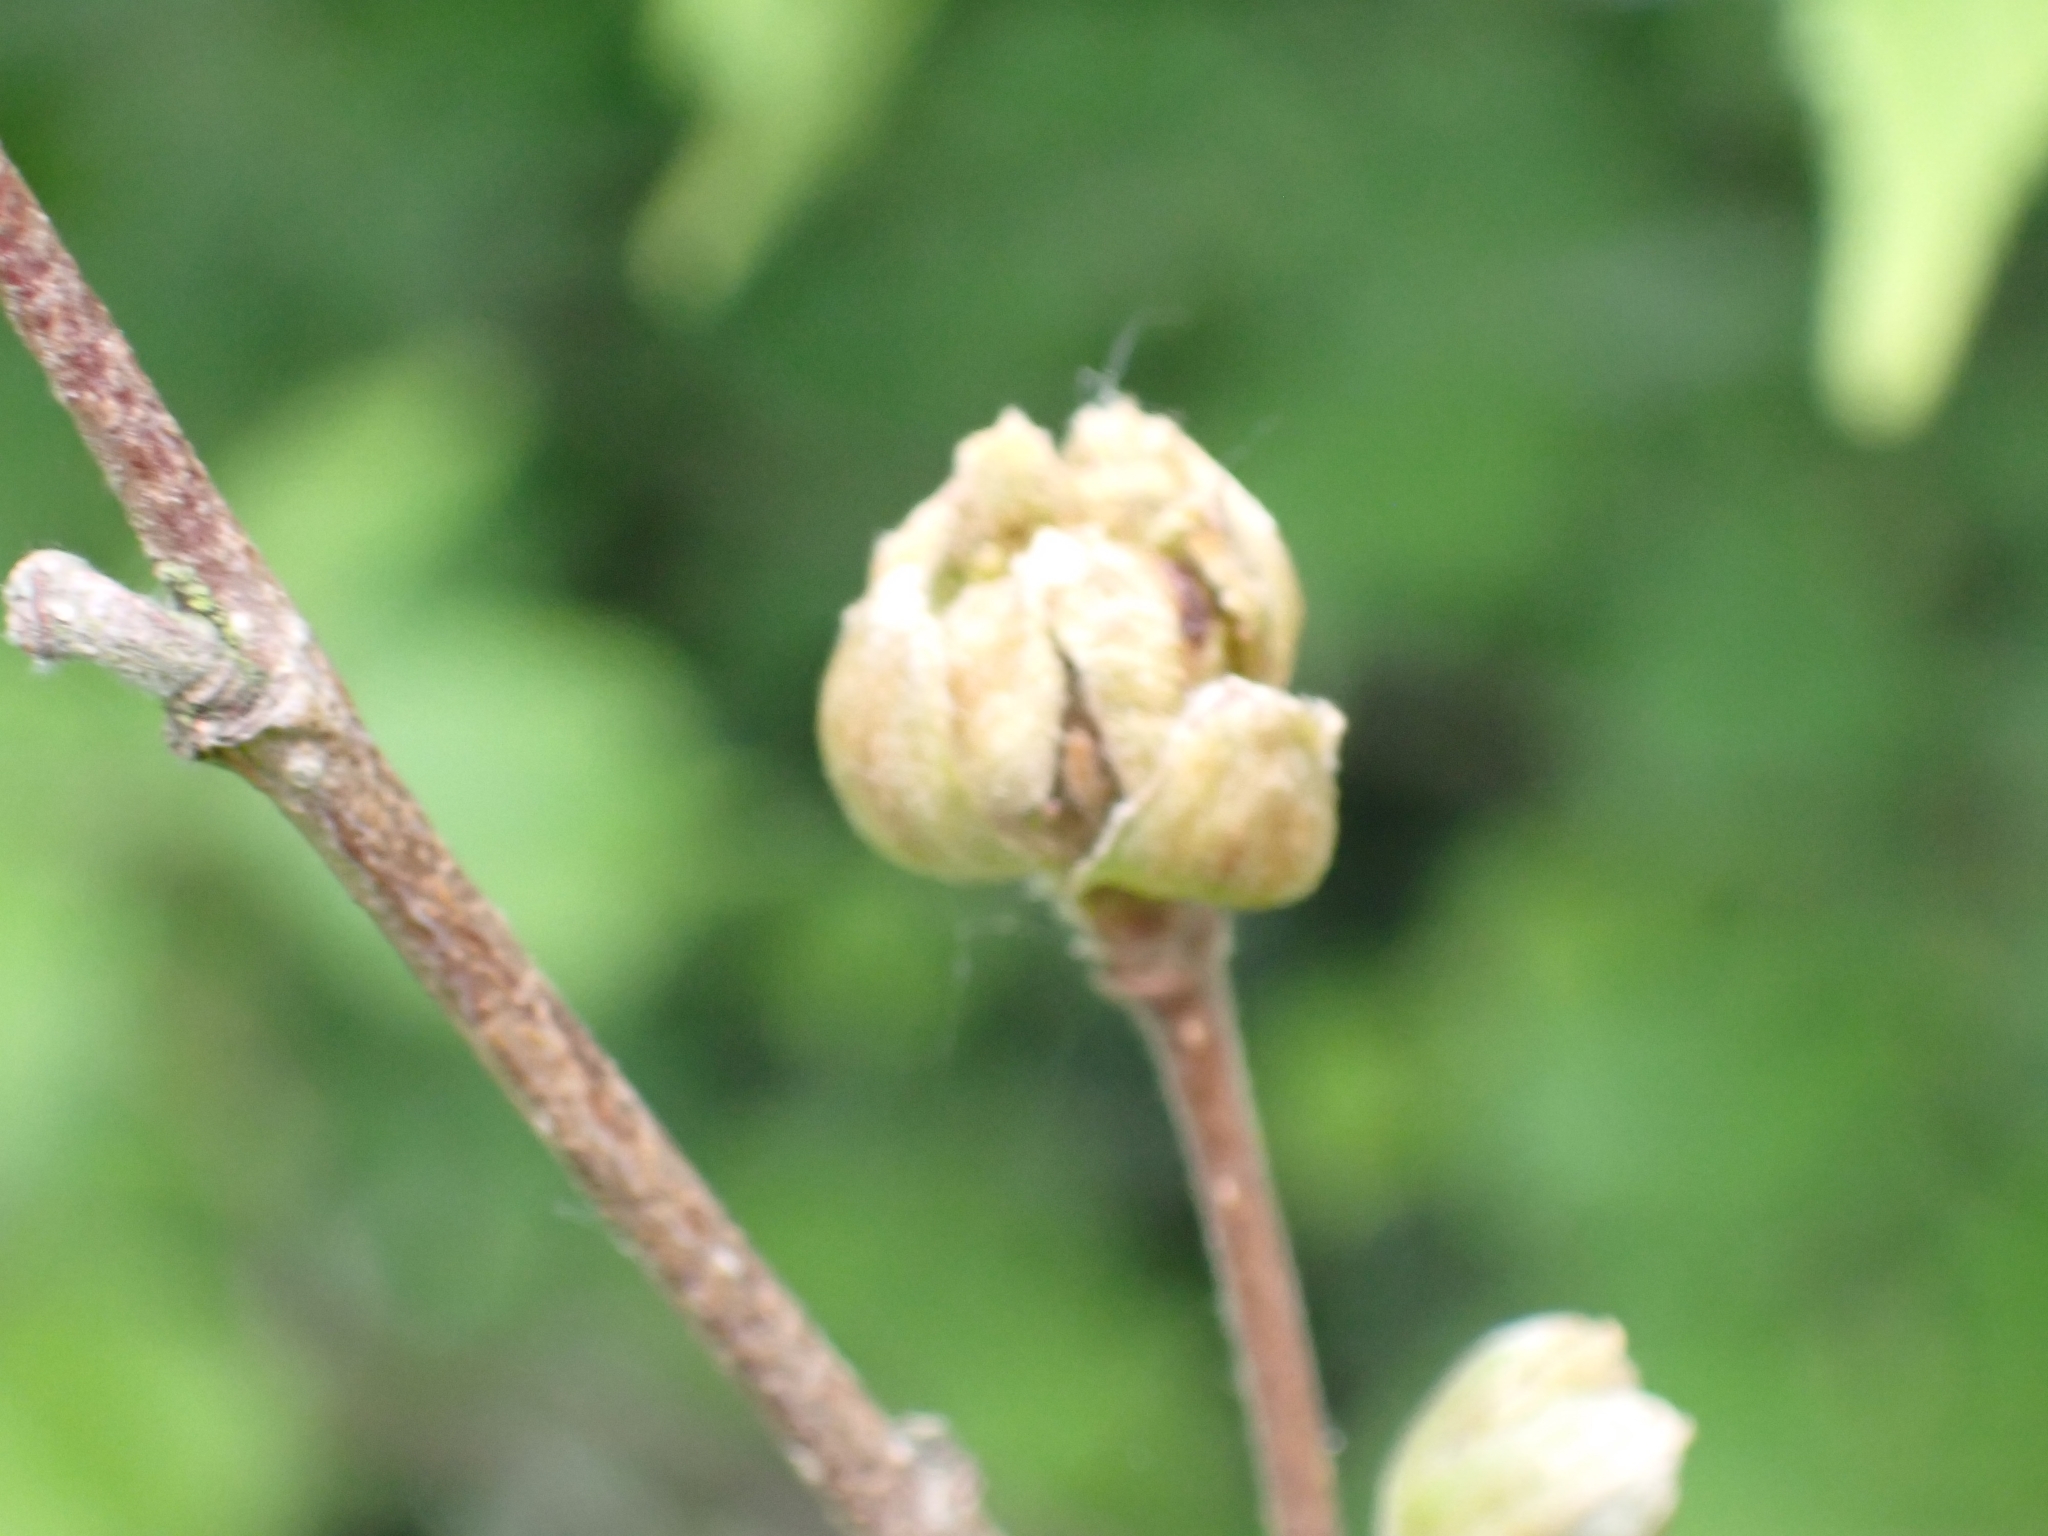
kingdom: Animalia
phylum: Arthropoda
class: Arachnida
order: Trombidiformes
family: Phytoptidae
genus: Phytoptus
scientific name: Phytoptus avellanae
